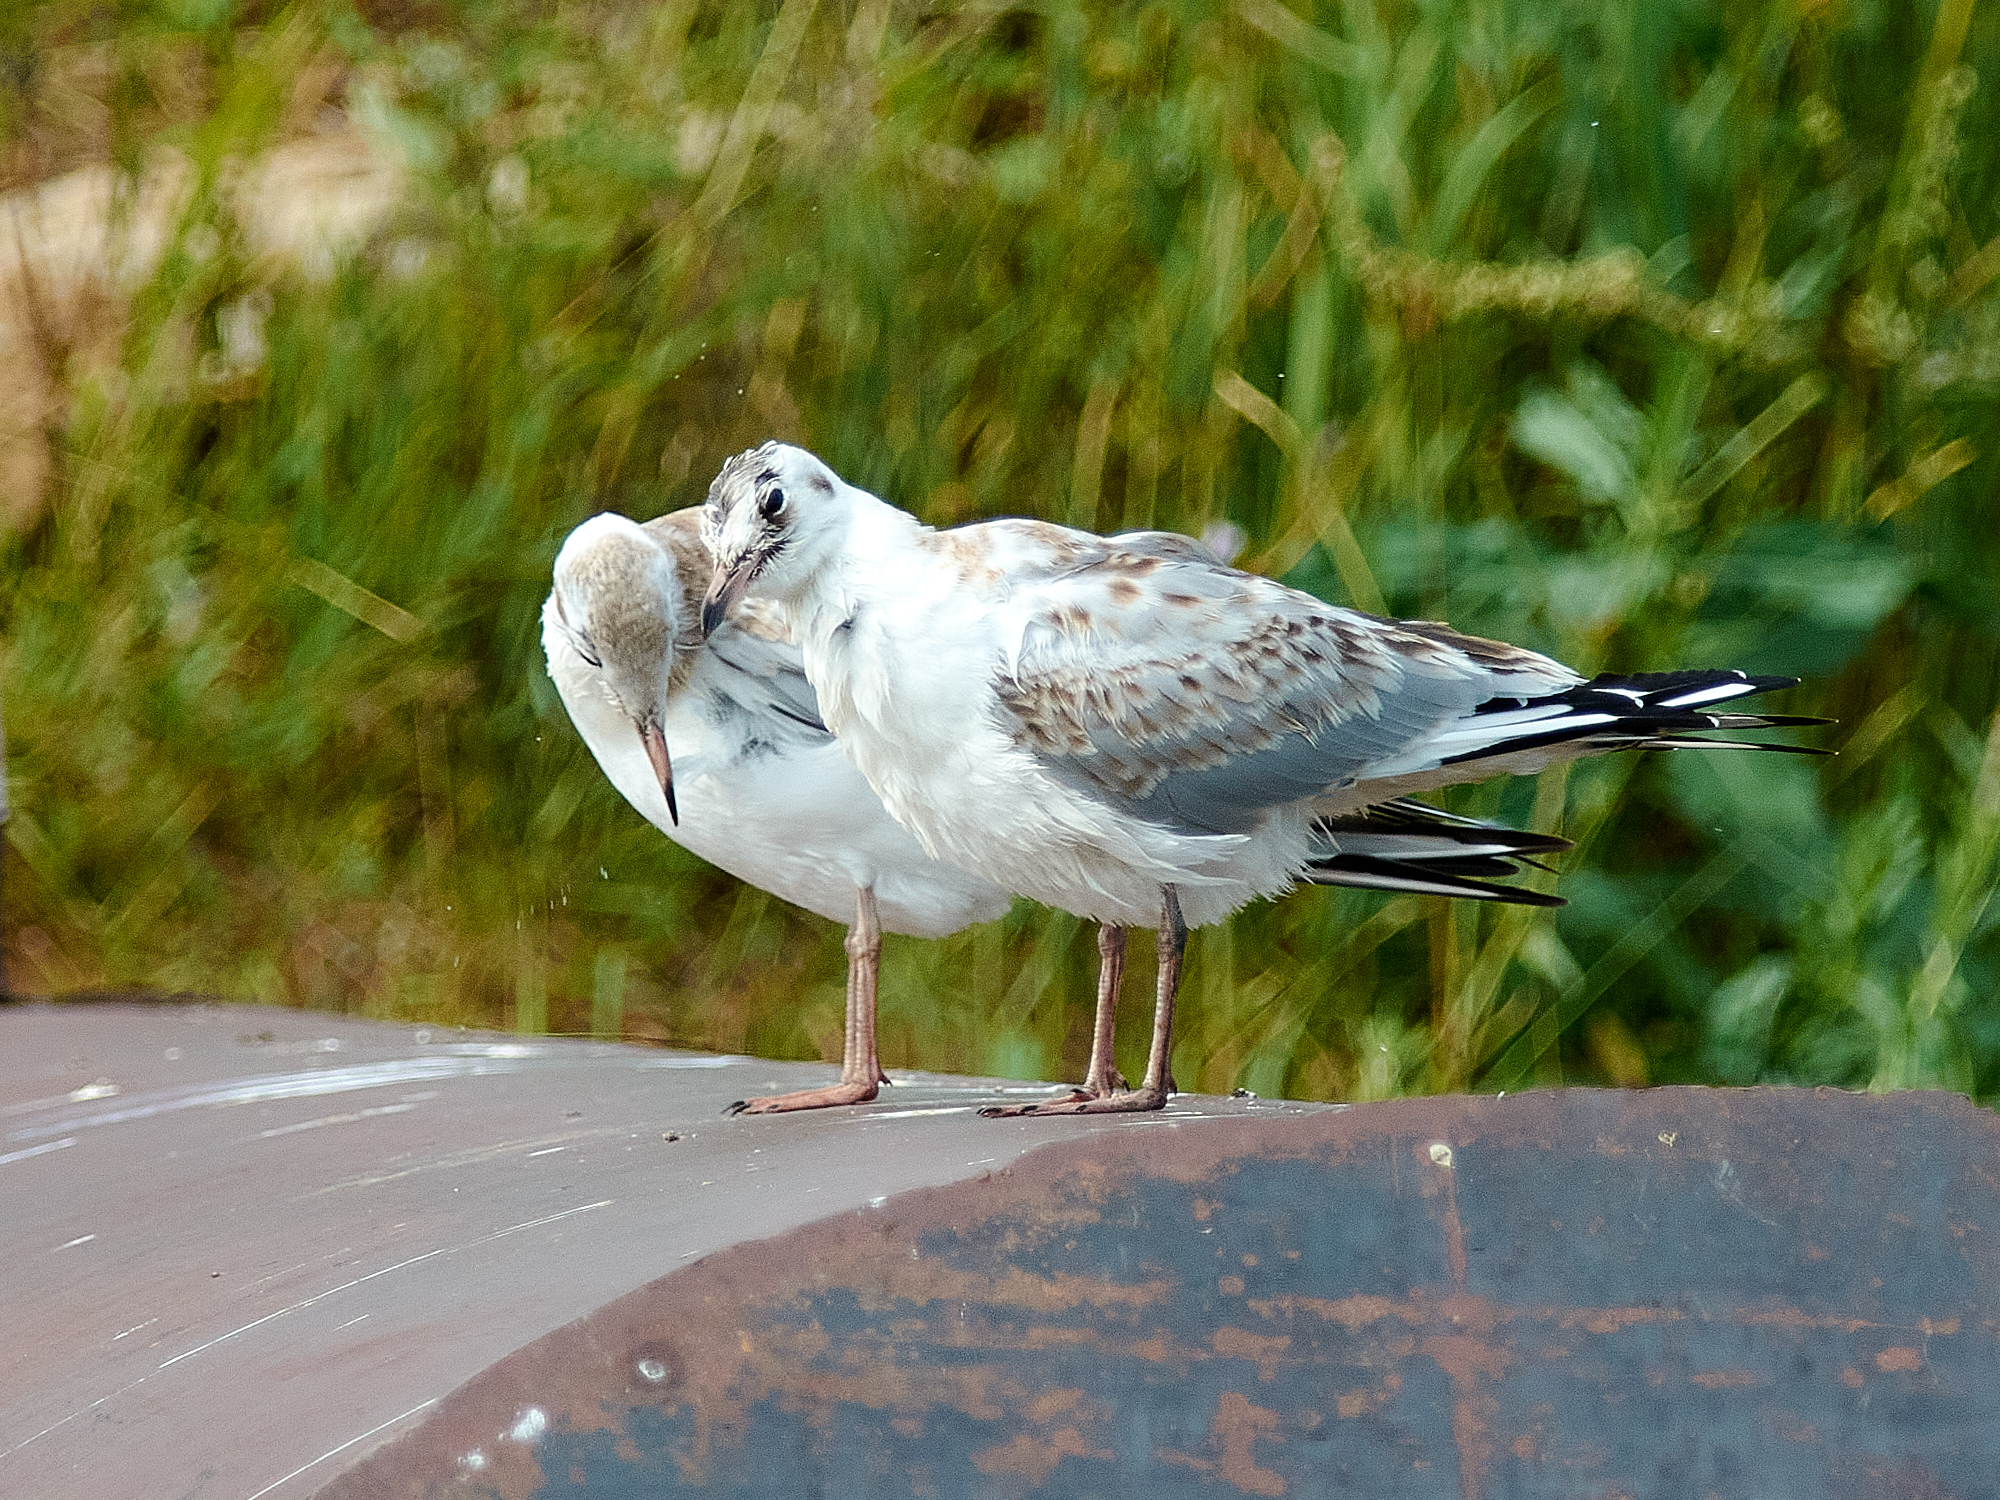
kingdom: Animalia
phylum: Chordata
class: Aves
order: Charadriiformes
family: Laridae
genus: Chroicocephalus
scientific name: Chroicocephalus ridibundus
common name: Black-headed gull
